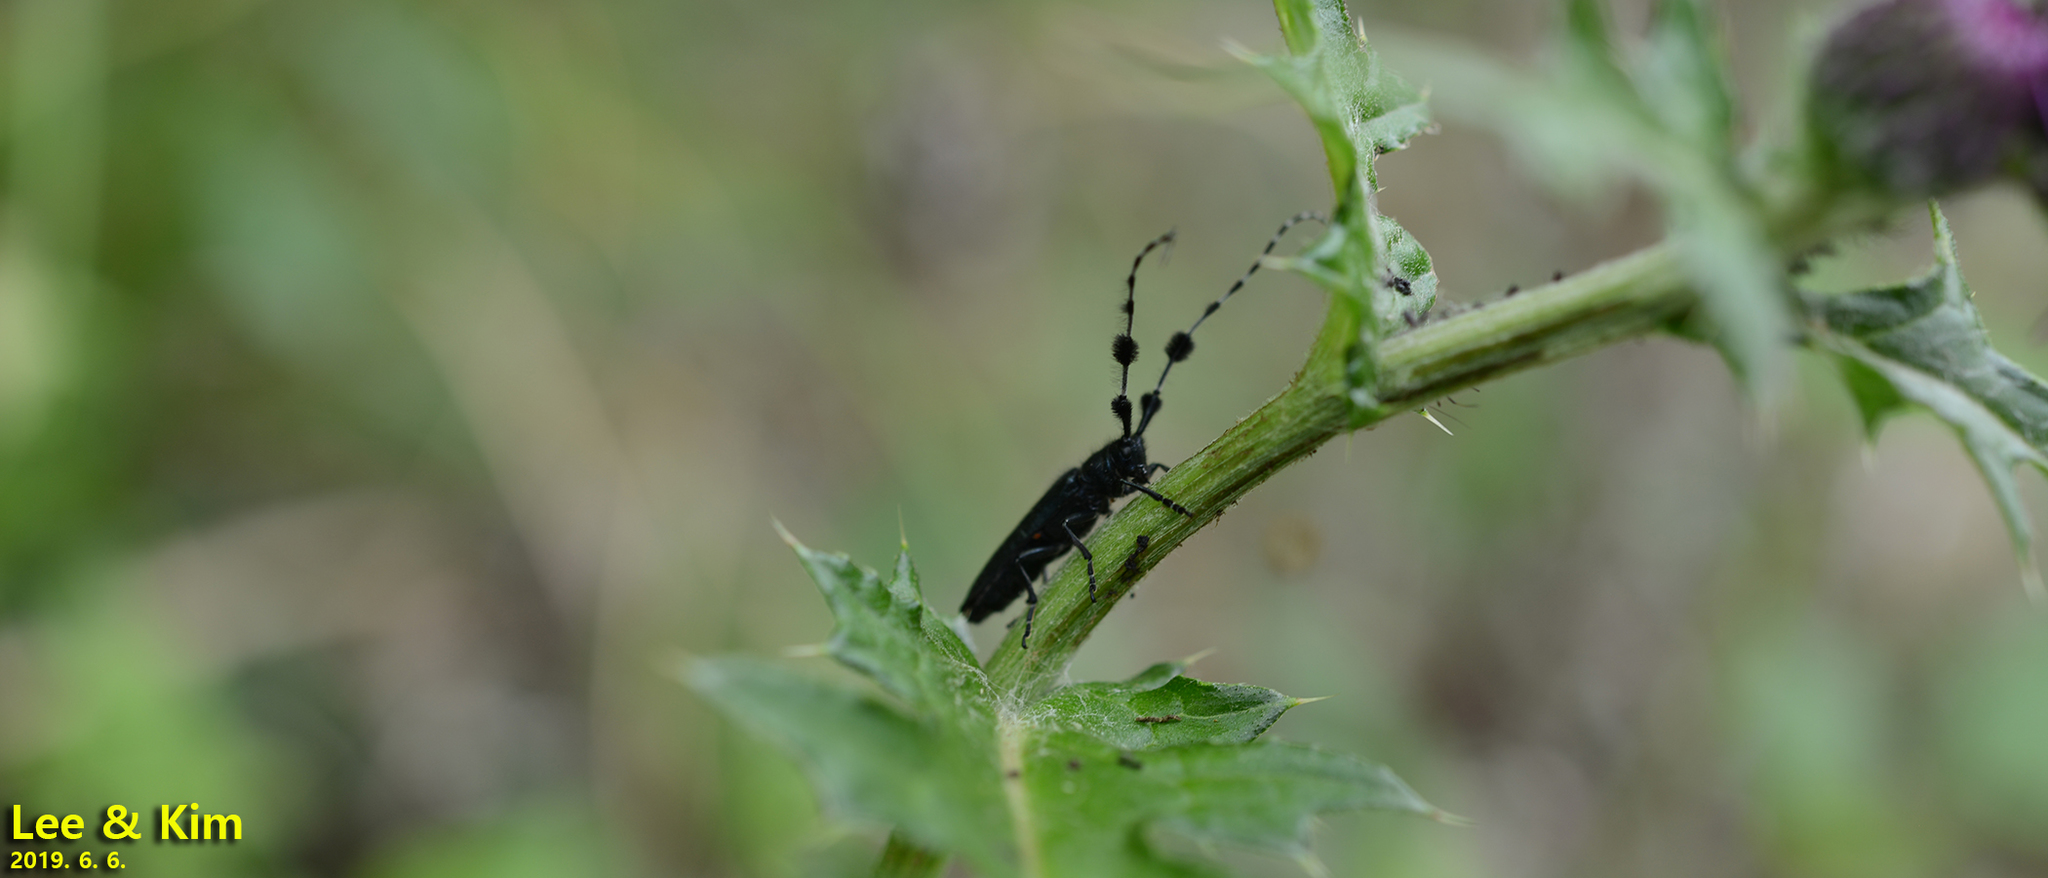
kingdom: Animalia
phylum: Arthropoda
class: Insecta
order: Coleoptera
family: Cerambycidae
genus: Agapanthia
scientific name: Agapanthia amurensis
